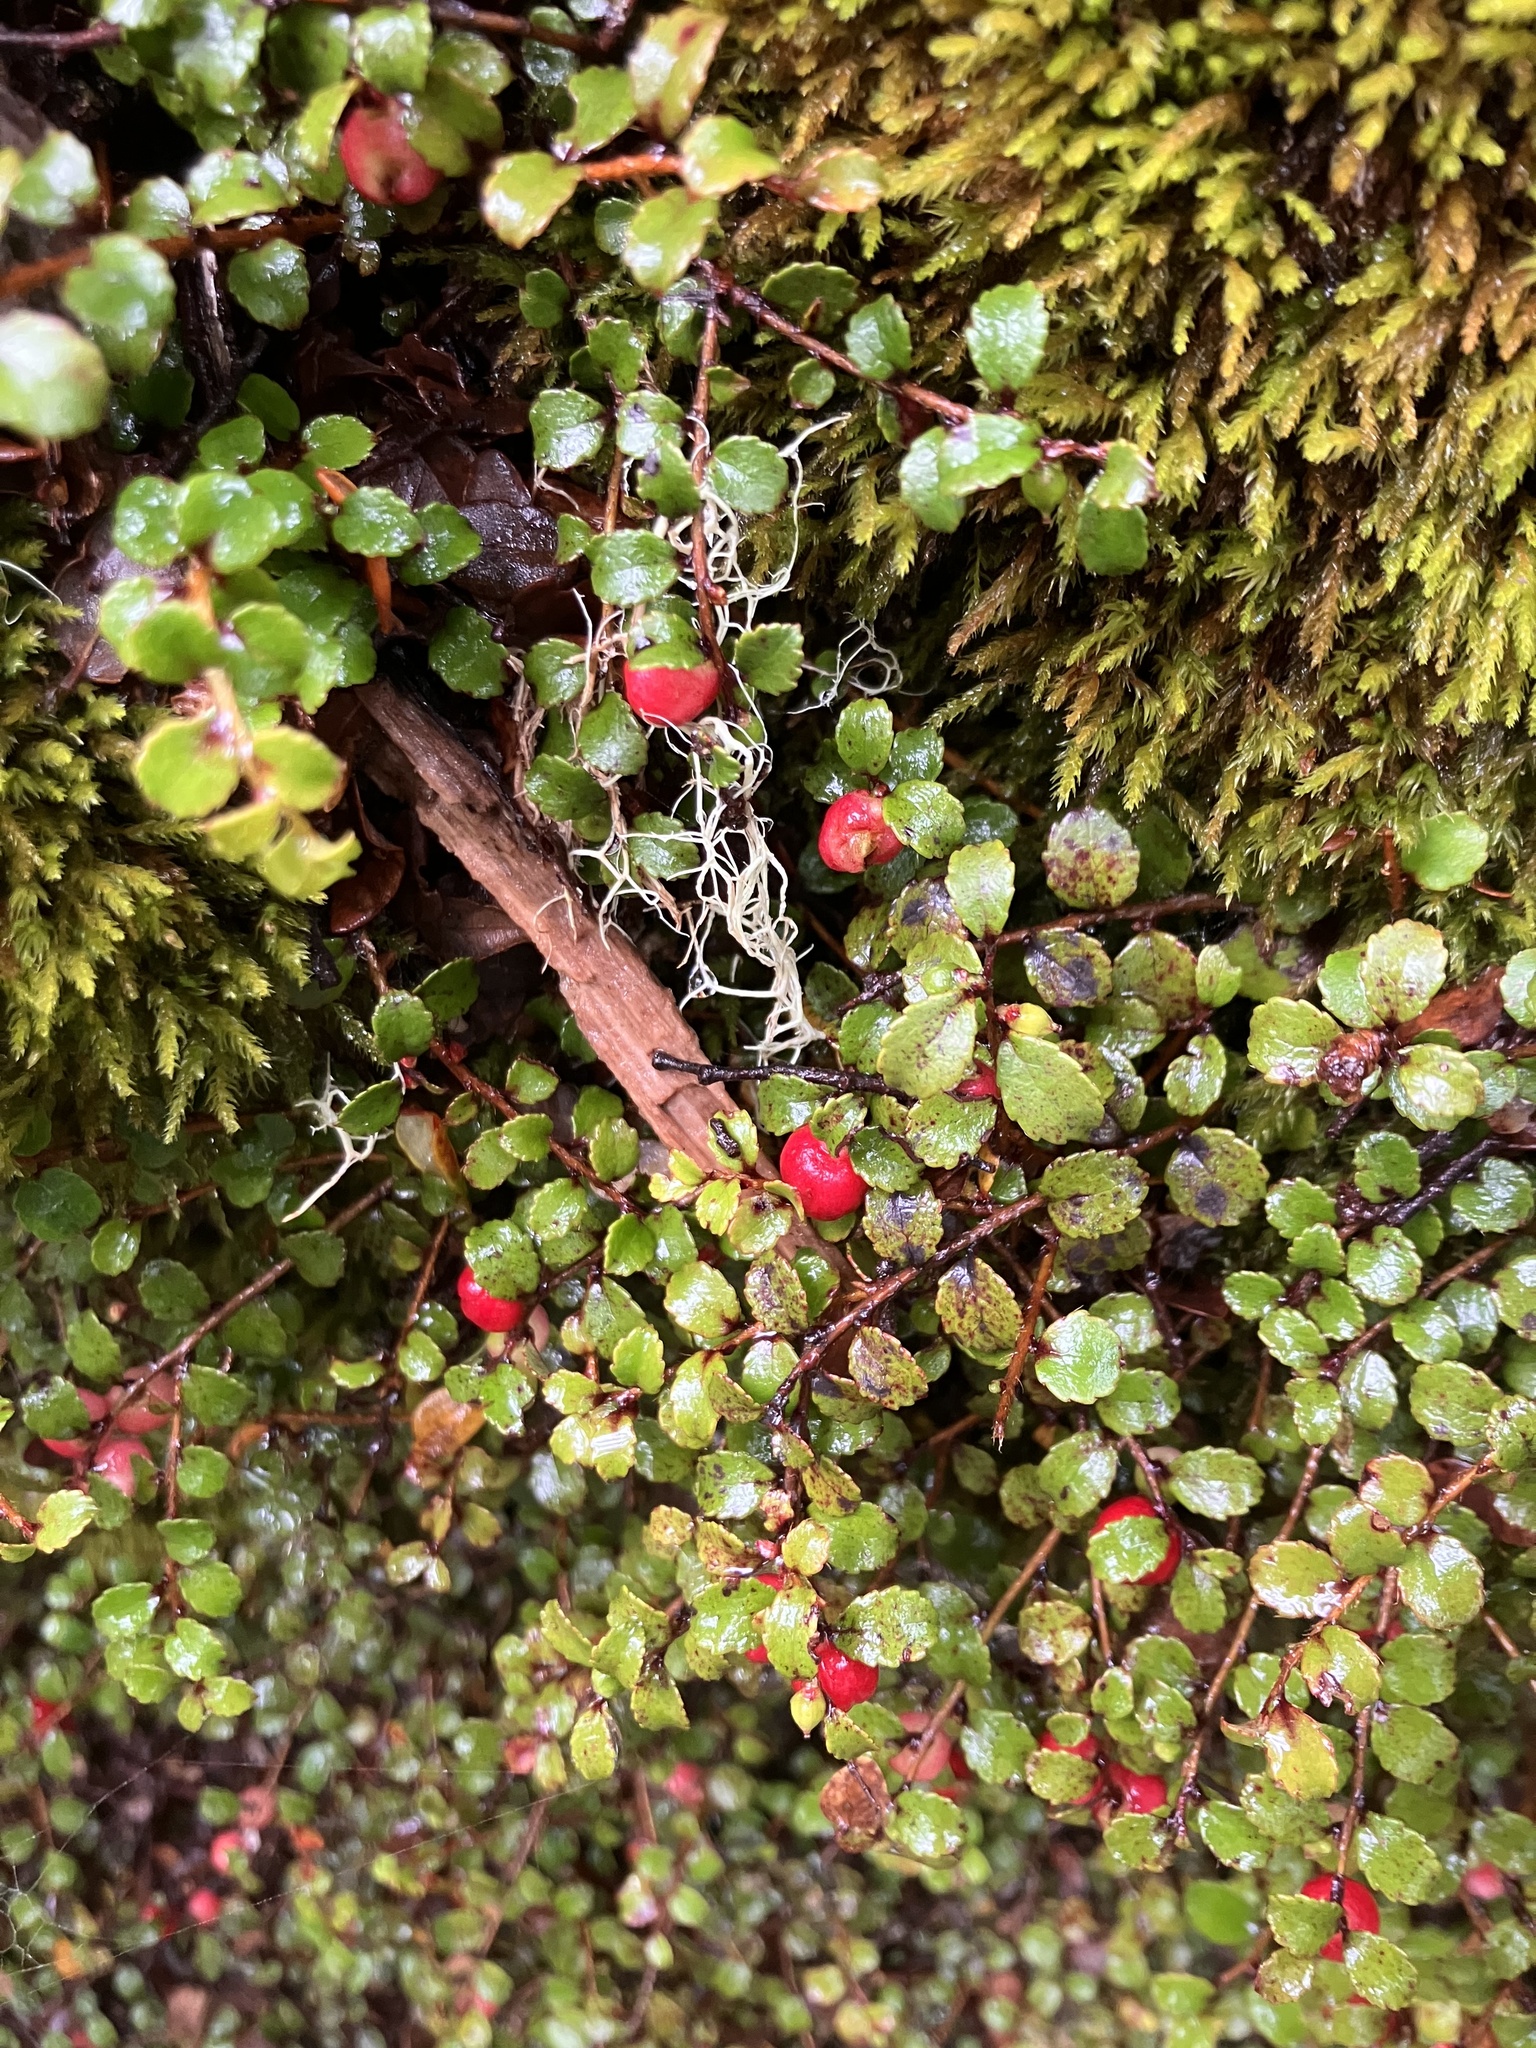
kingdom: Plantae
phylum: Tracheophyta
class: Magnoliopsida
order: Ericales
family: Ericaceae
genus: Gaultheria
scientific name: Gaultheria depressa
